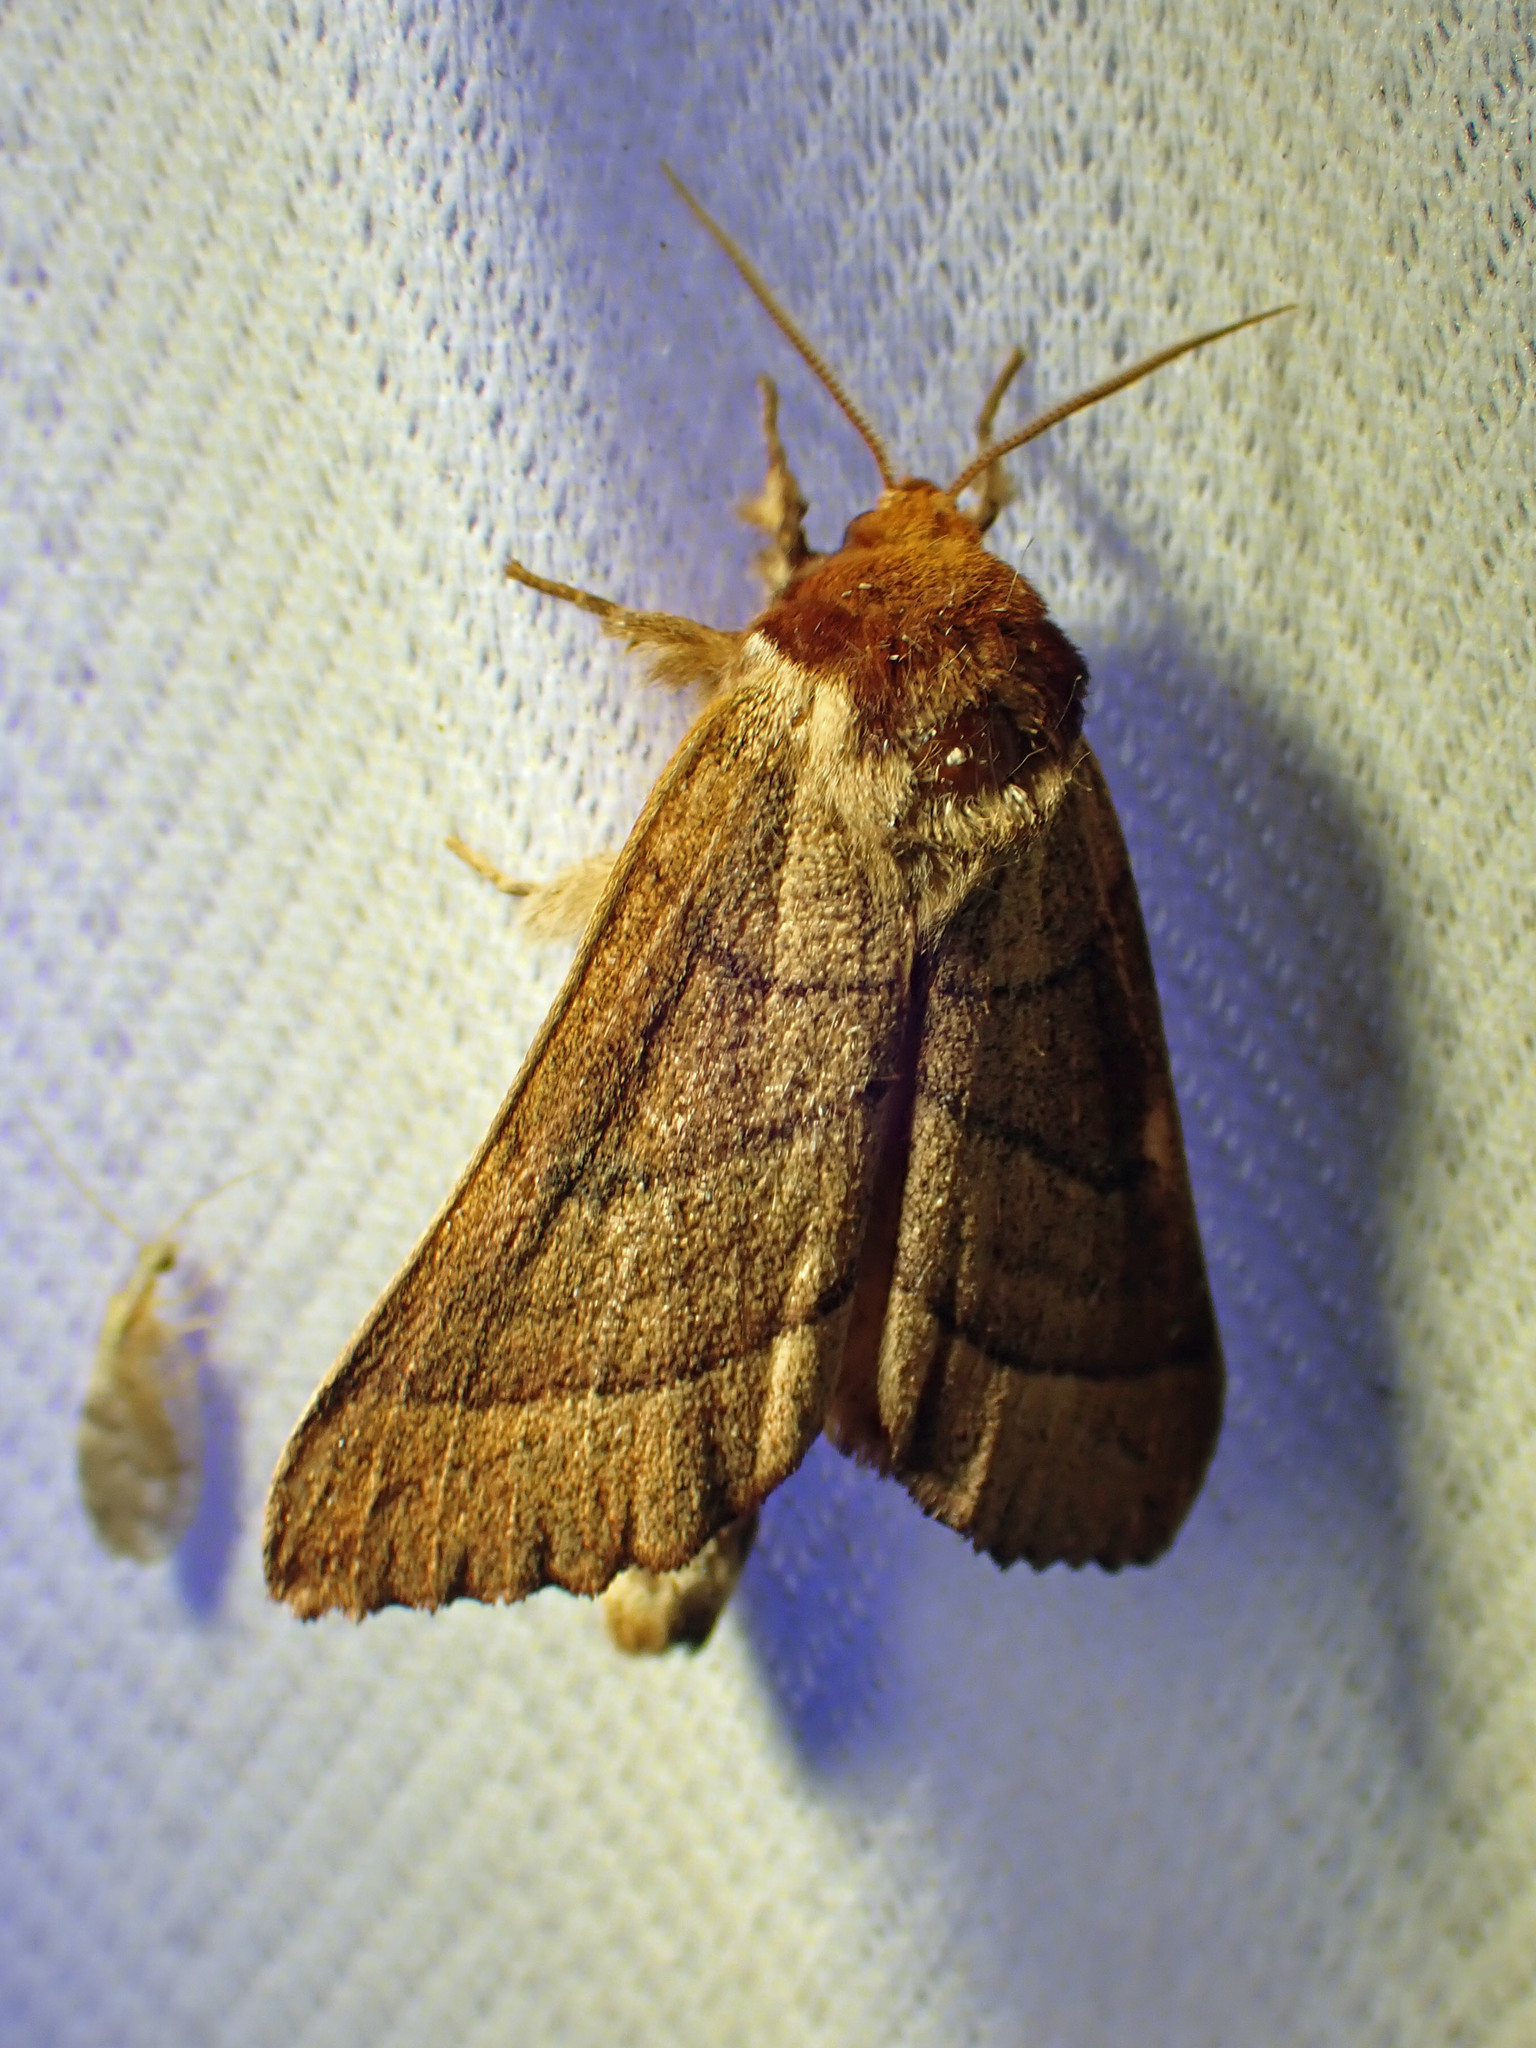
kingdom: Animalia
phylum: Arthropoda
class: Insecta
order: Lepidoptera
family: Notodontidae
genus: Datana
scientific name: Datana ministra
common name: Yellow-necked caterpillar moth
